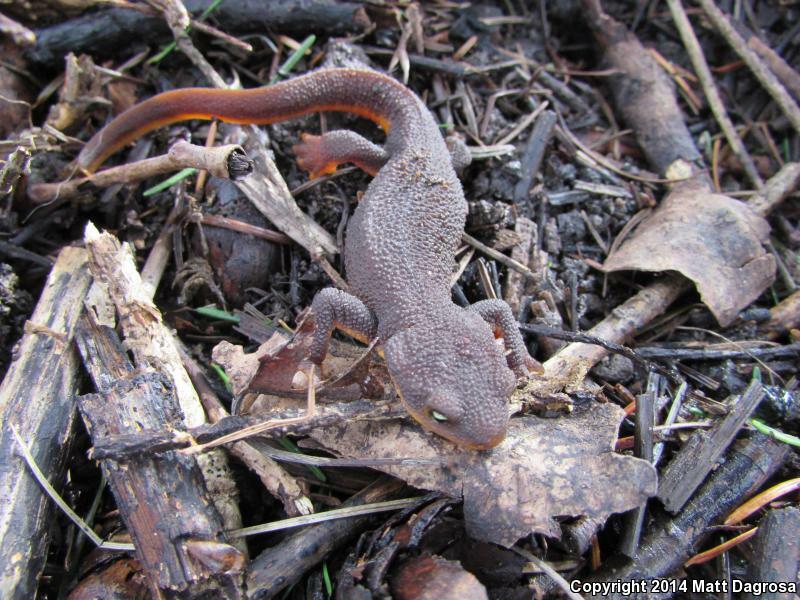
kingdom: Animalia
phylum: Chordata
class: Amphibia
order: Caudata
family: Salamandridae
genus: Taricha
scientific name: Taricha granulosa
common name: Roughskin newt
